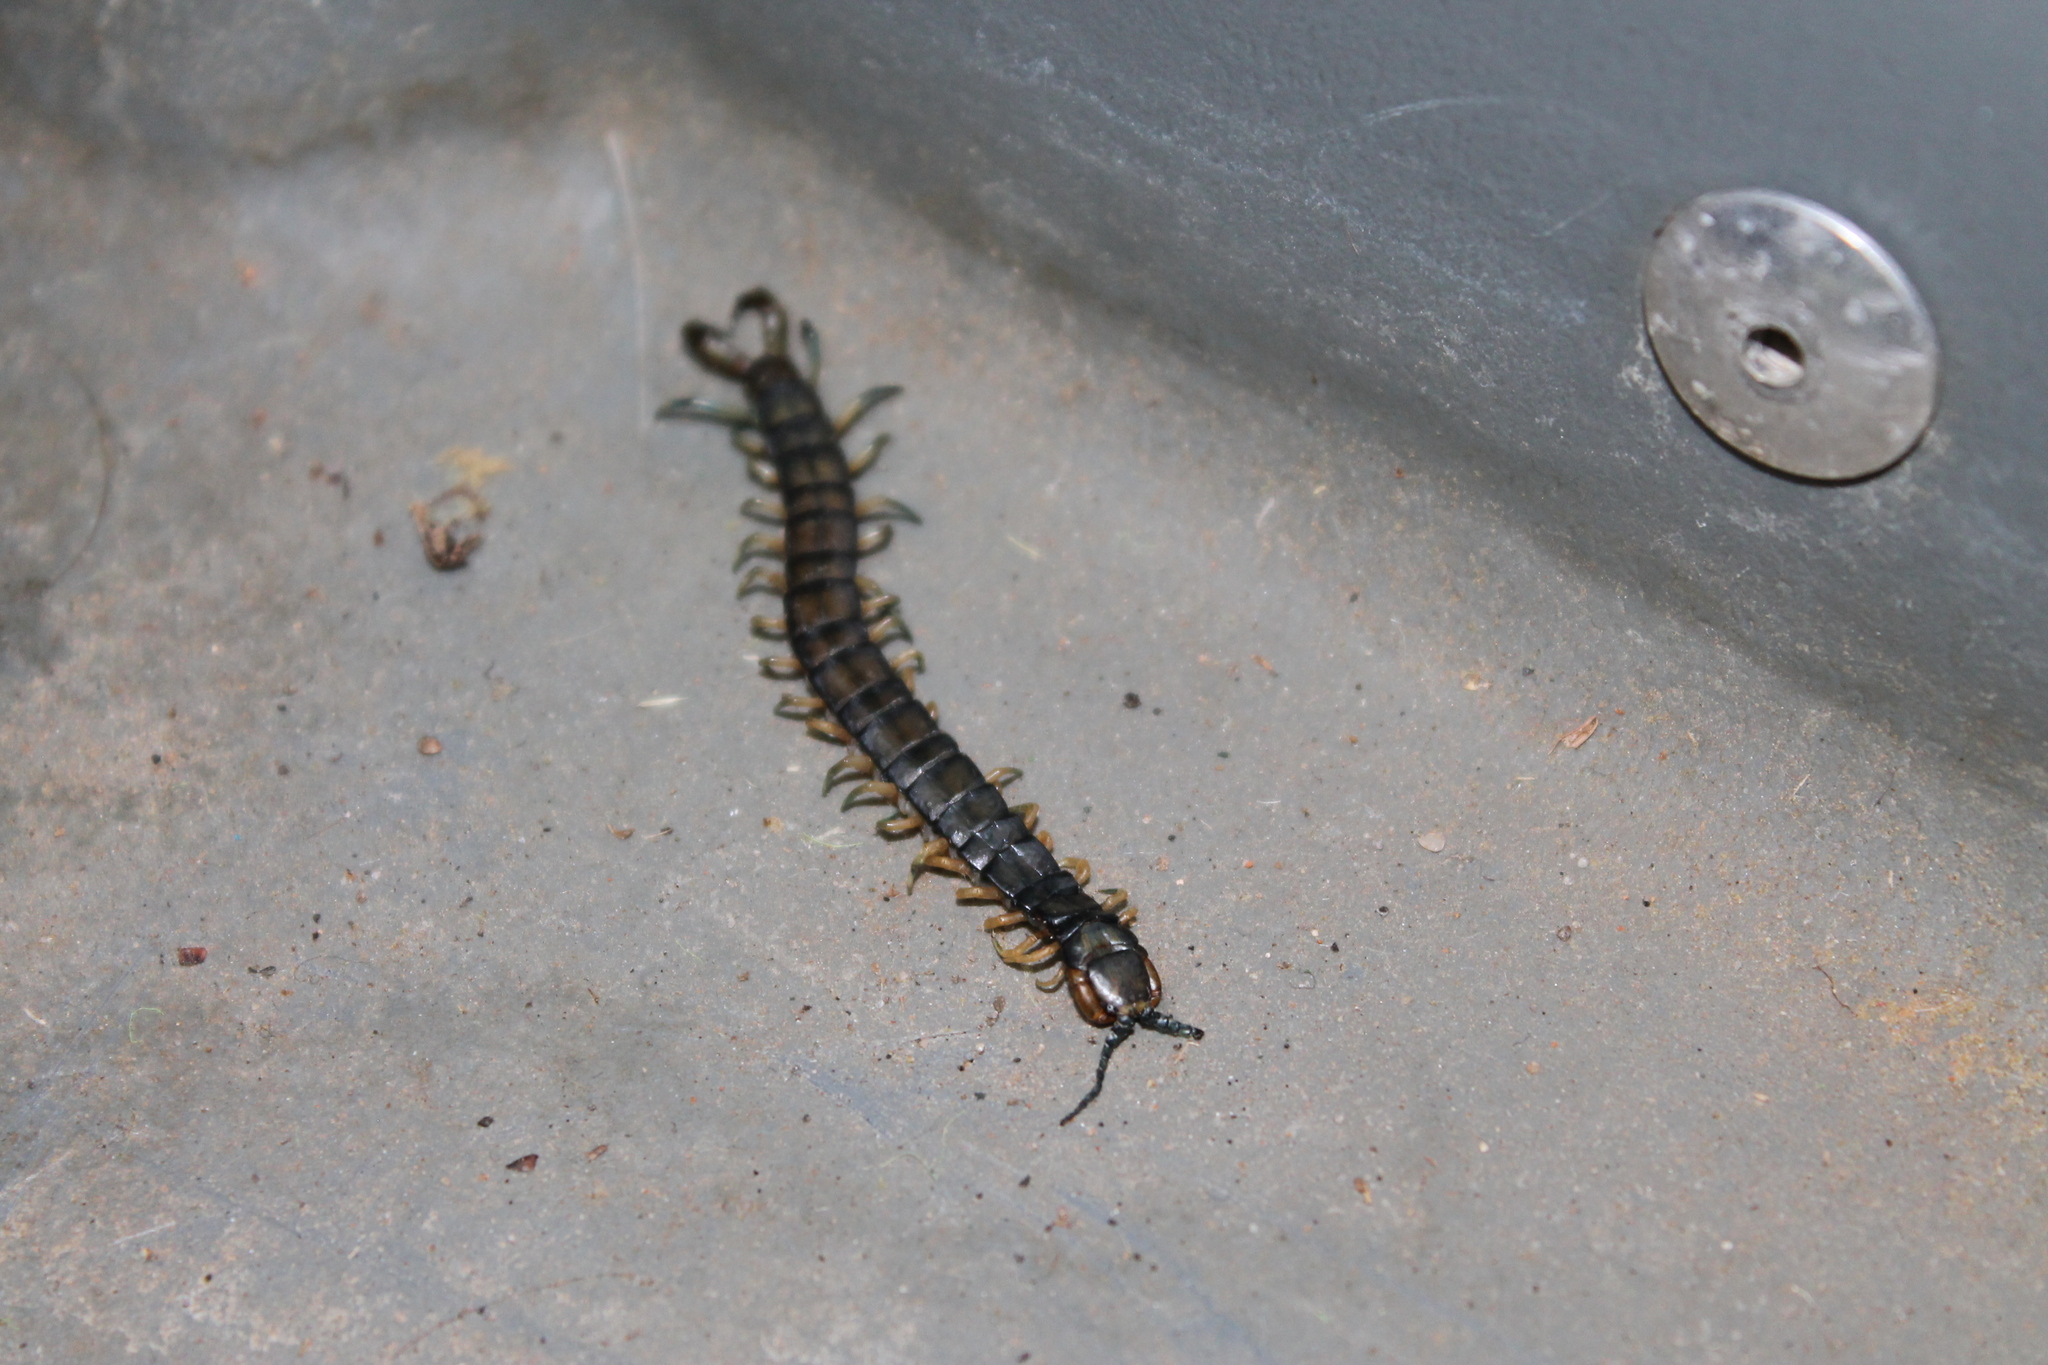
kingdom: Animalia
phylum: Arthropoda
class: Chilopoda
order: Scolopendromorpha
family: Scolopendridae
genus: Hemiscolopendra
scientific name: Hemiscolopendra marginata
